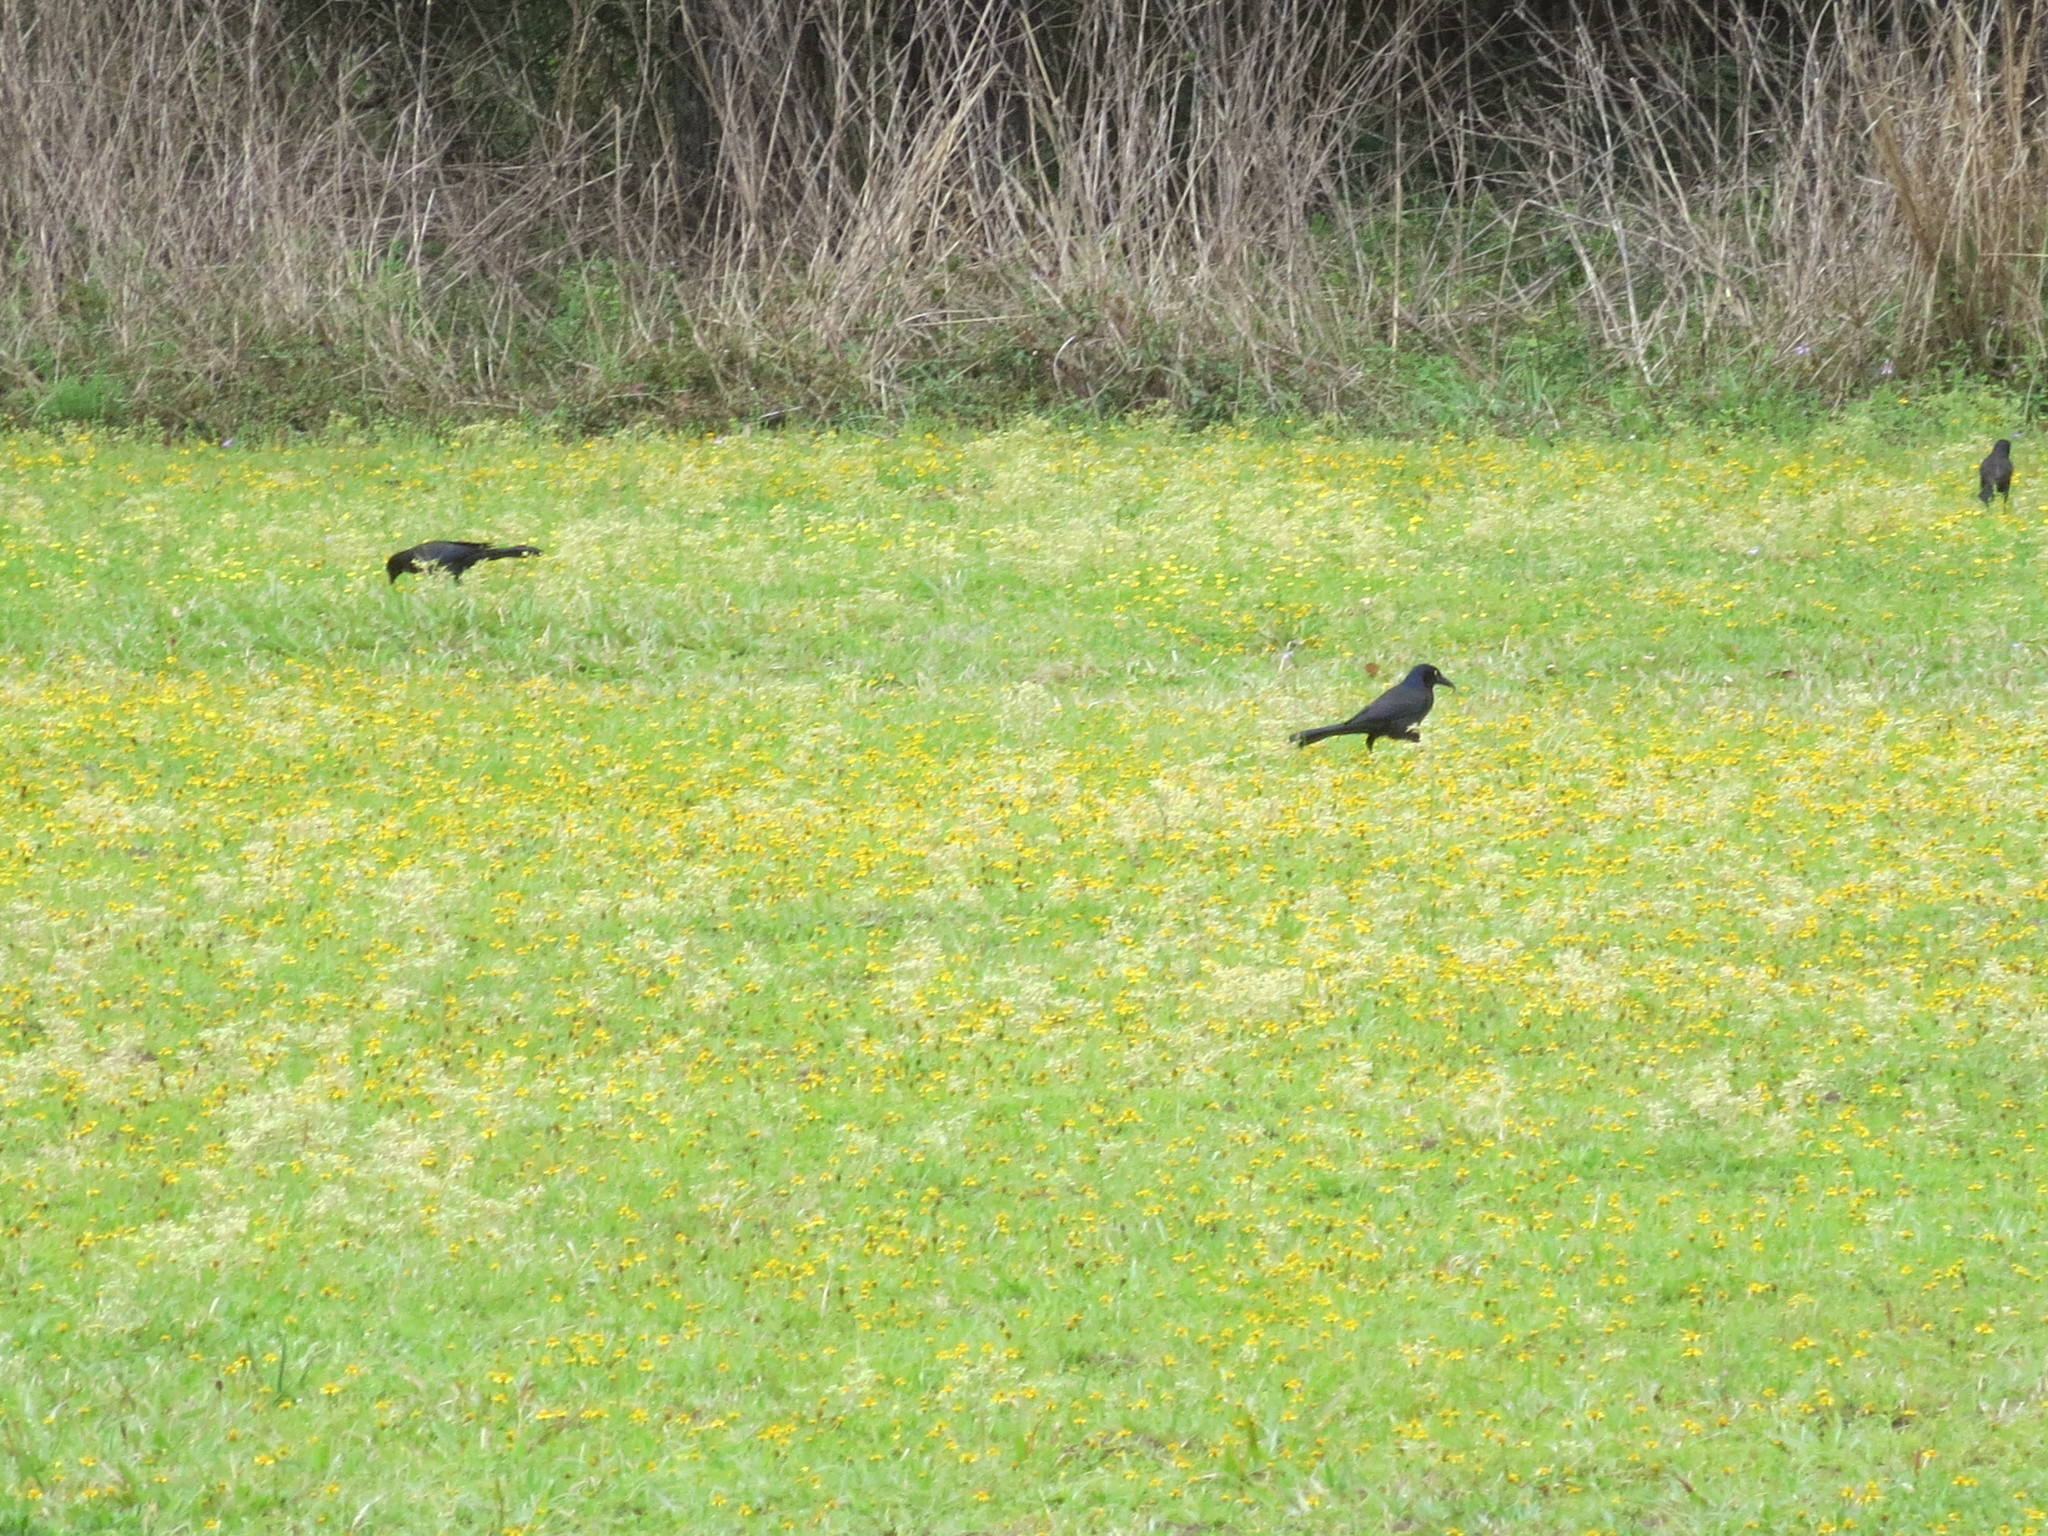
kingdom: Animalia
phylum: Chordata
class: Aves
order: Passeriformes
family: Icteridae
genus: Quiscalus
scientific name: Quiscalus major
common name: Boat-tailed grackle
